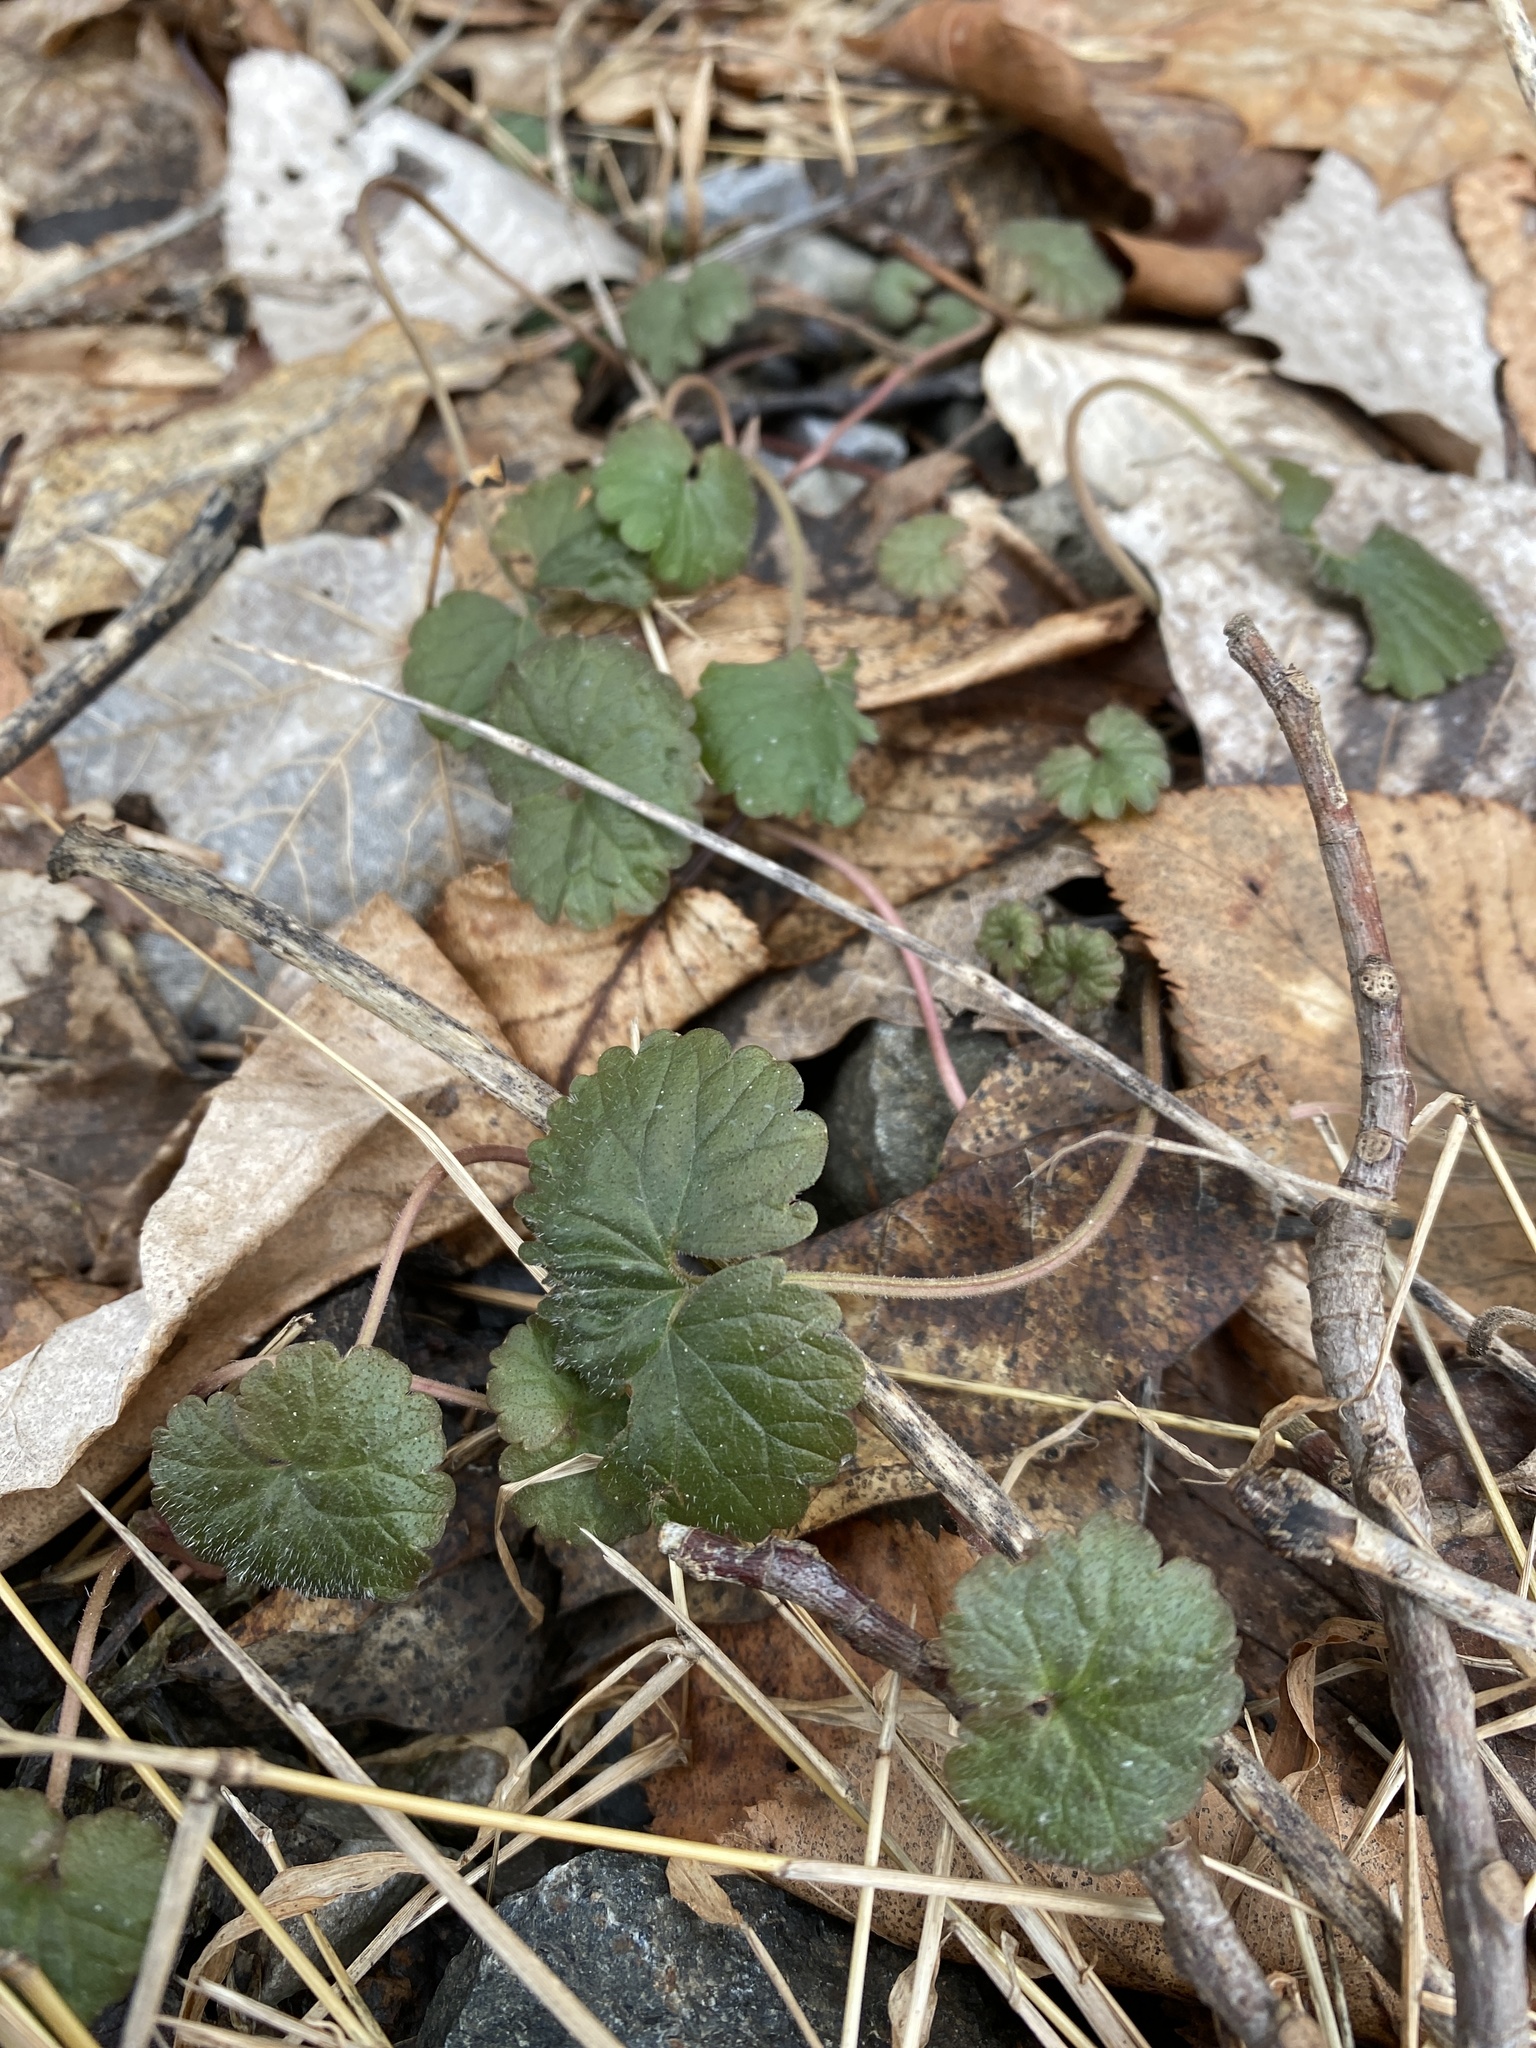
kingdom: Plantae
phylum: Tracheophyta
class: Magnoliopsida
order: Lamiales
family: Lamiaceae
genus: Glechoma
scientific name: Glechoma hederacea
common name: Ground ivy
